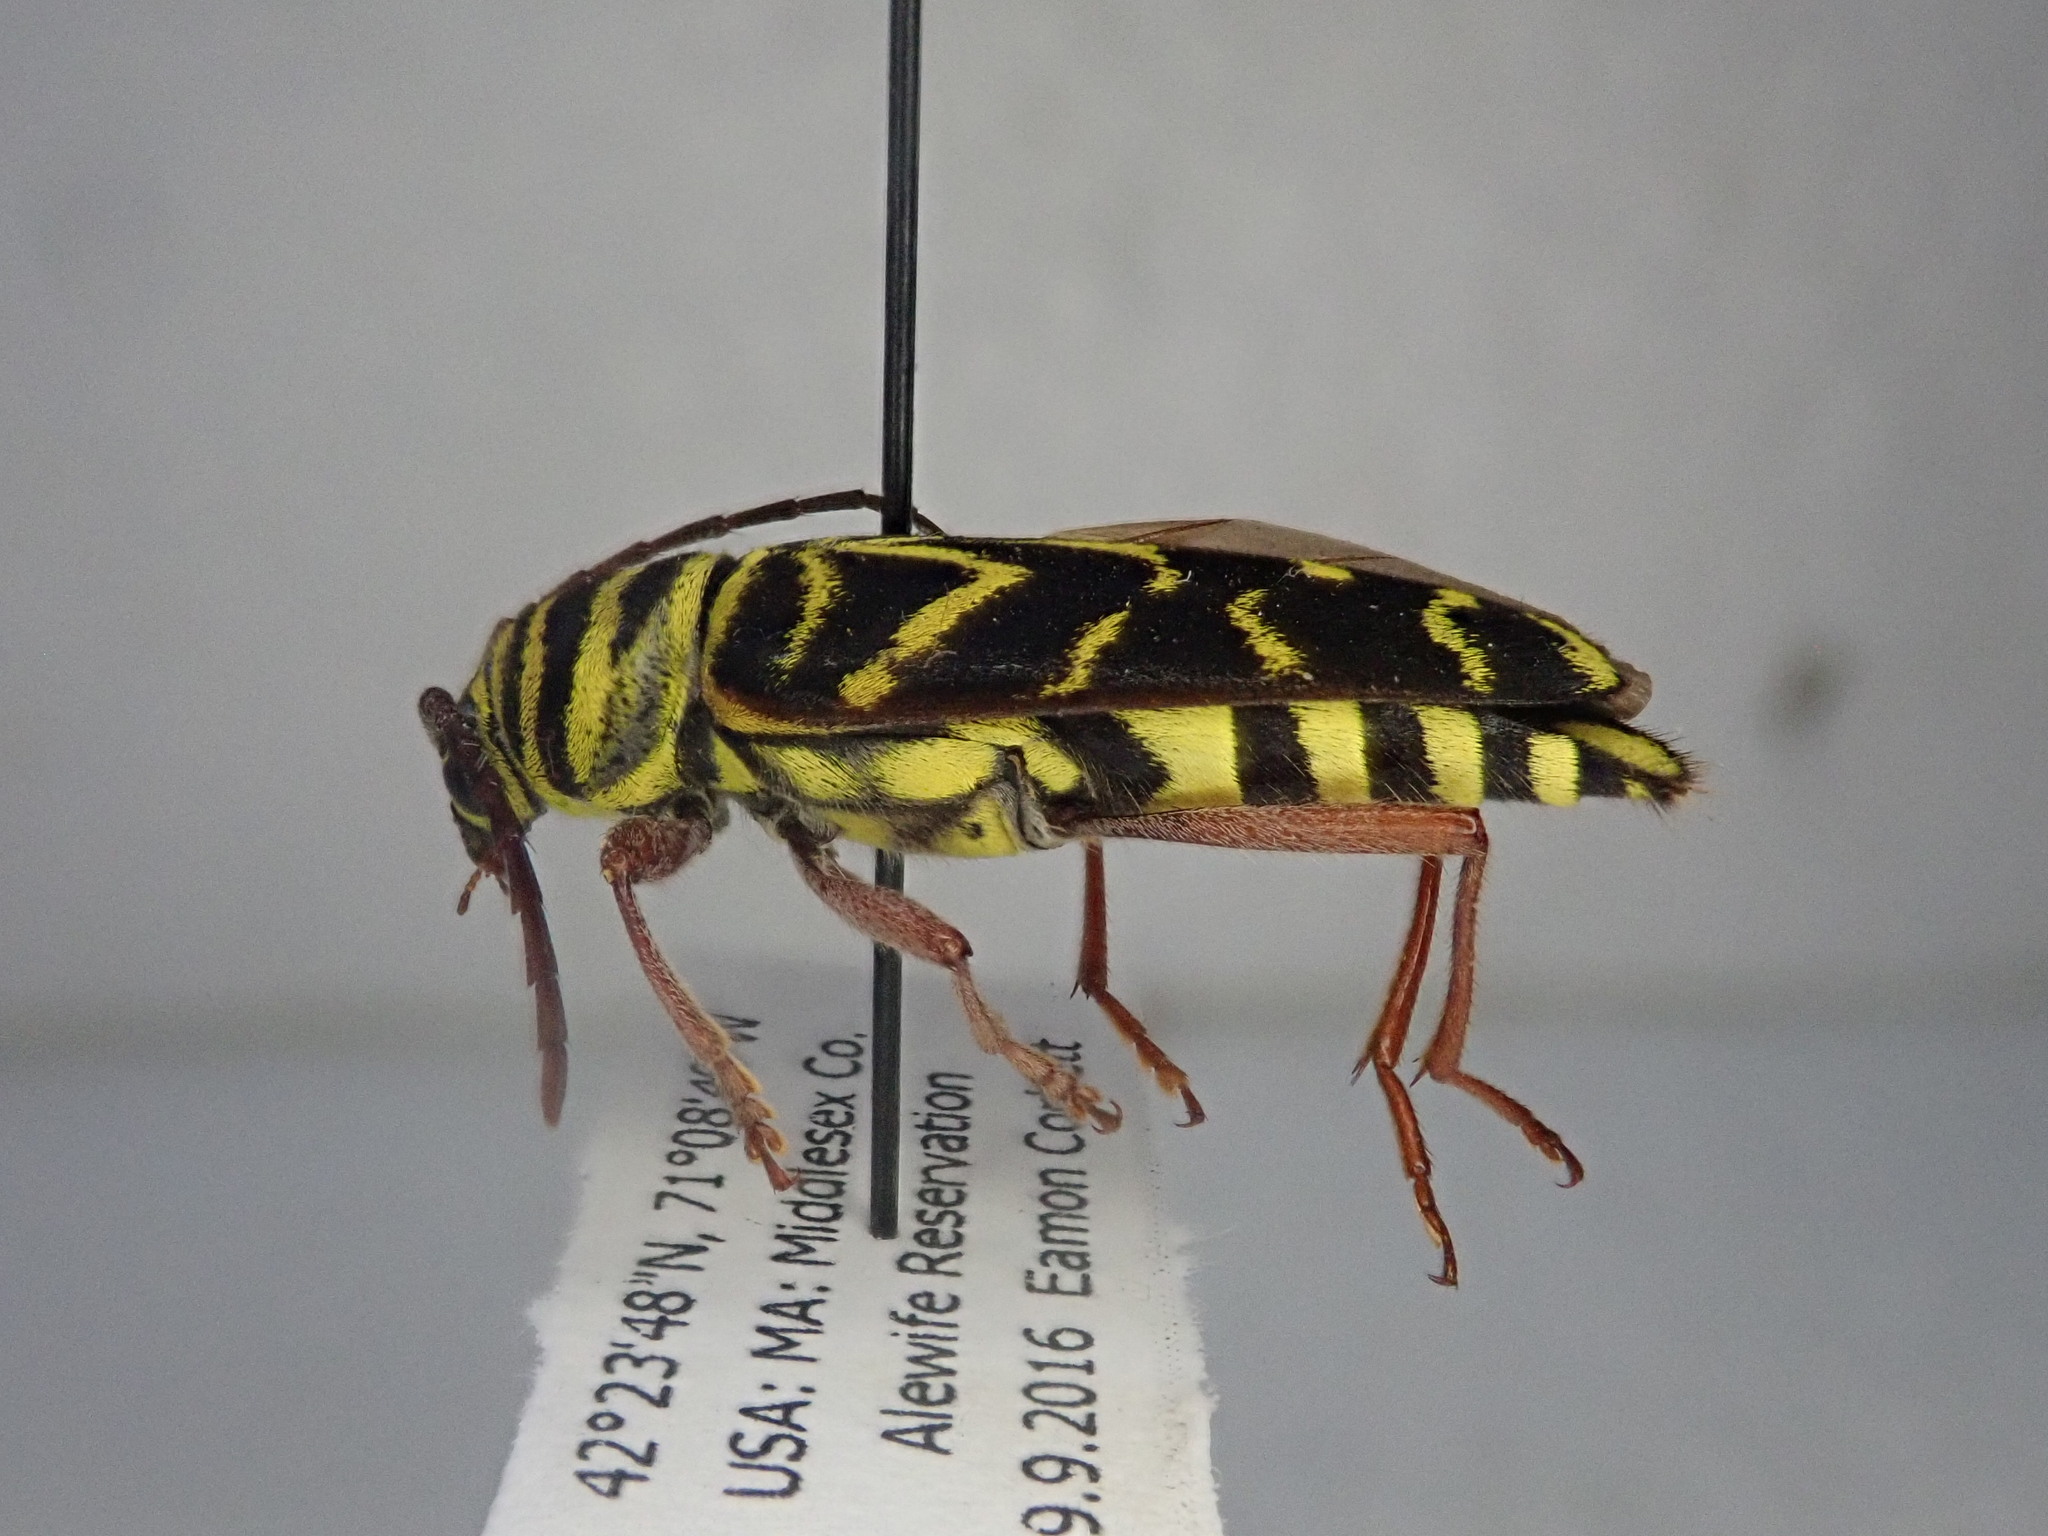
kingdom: Animalia
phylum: Arthropoda
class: Insecta
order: Coleoptera
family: Cerambycidae
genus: Megacyllene
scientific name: Megacyllene robiniae
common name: Locust borer
